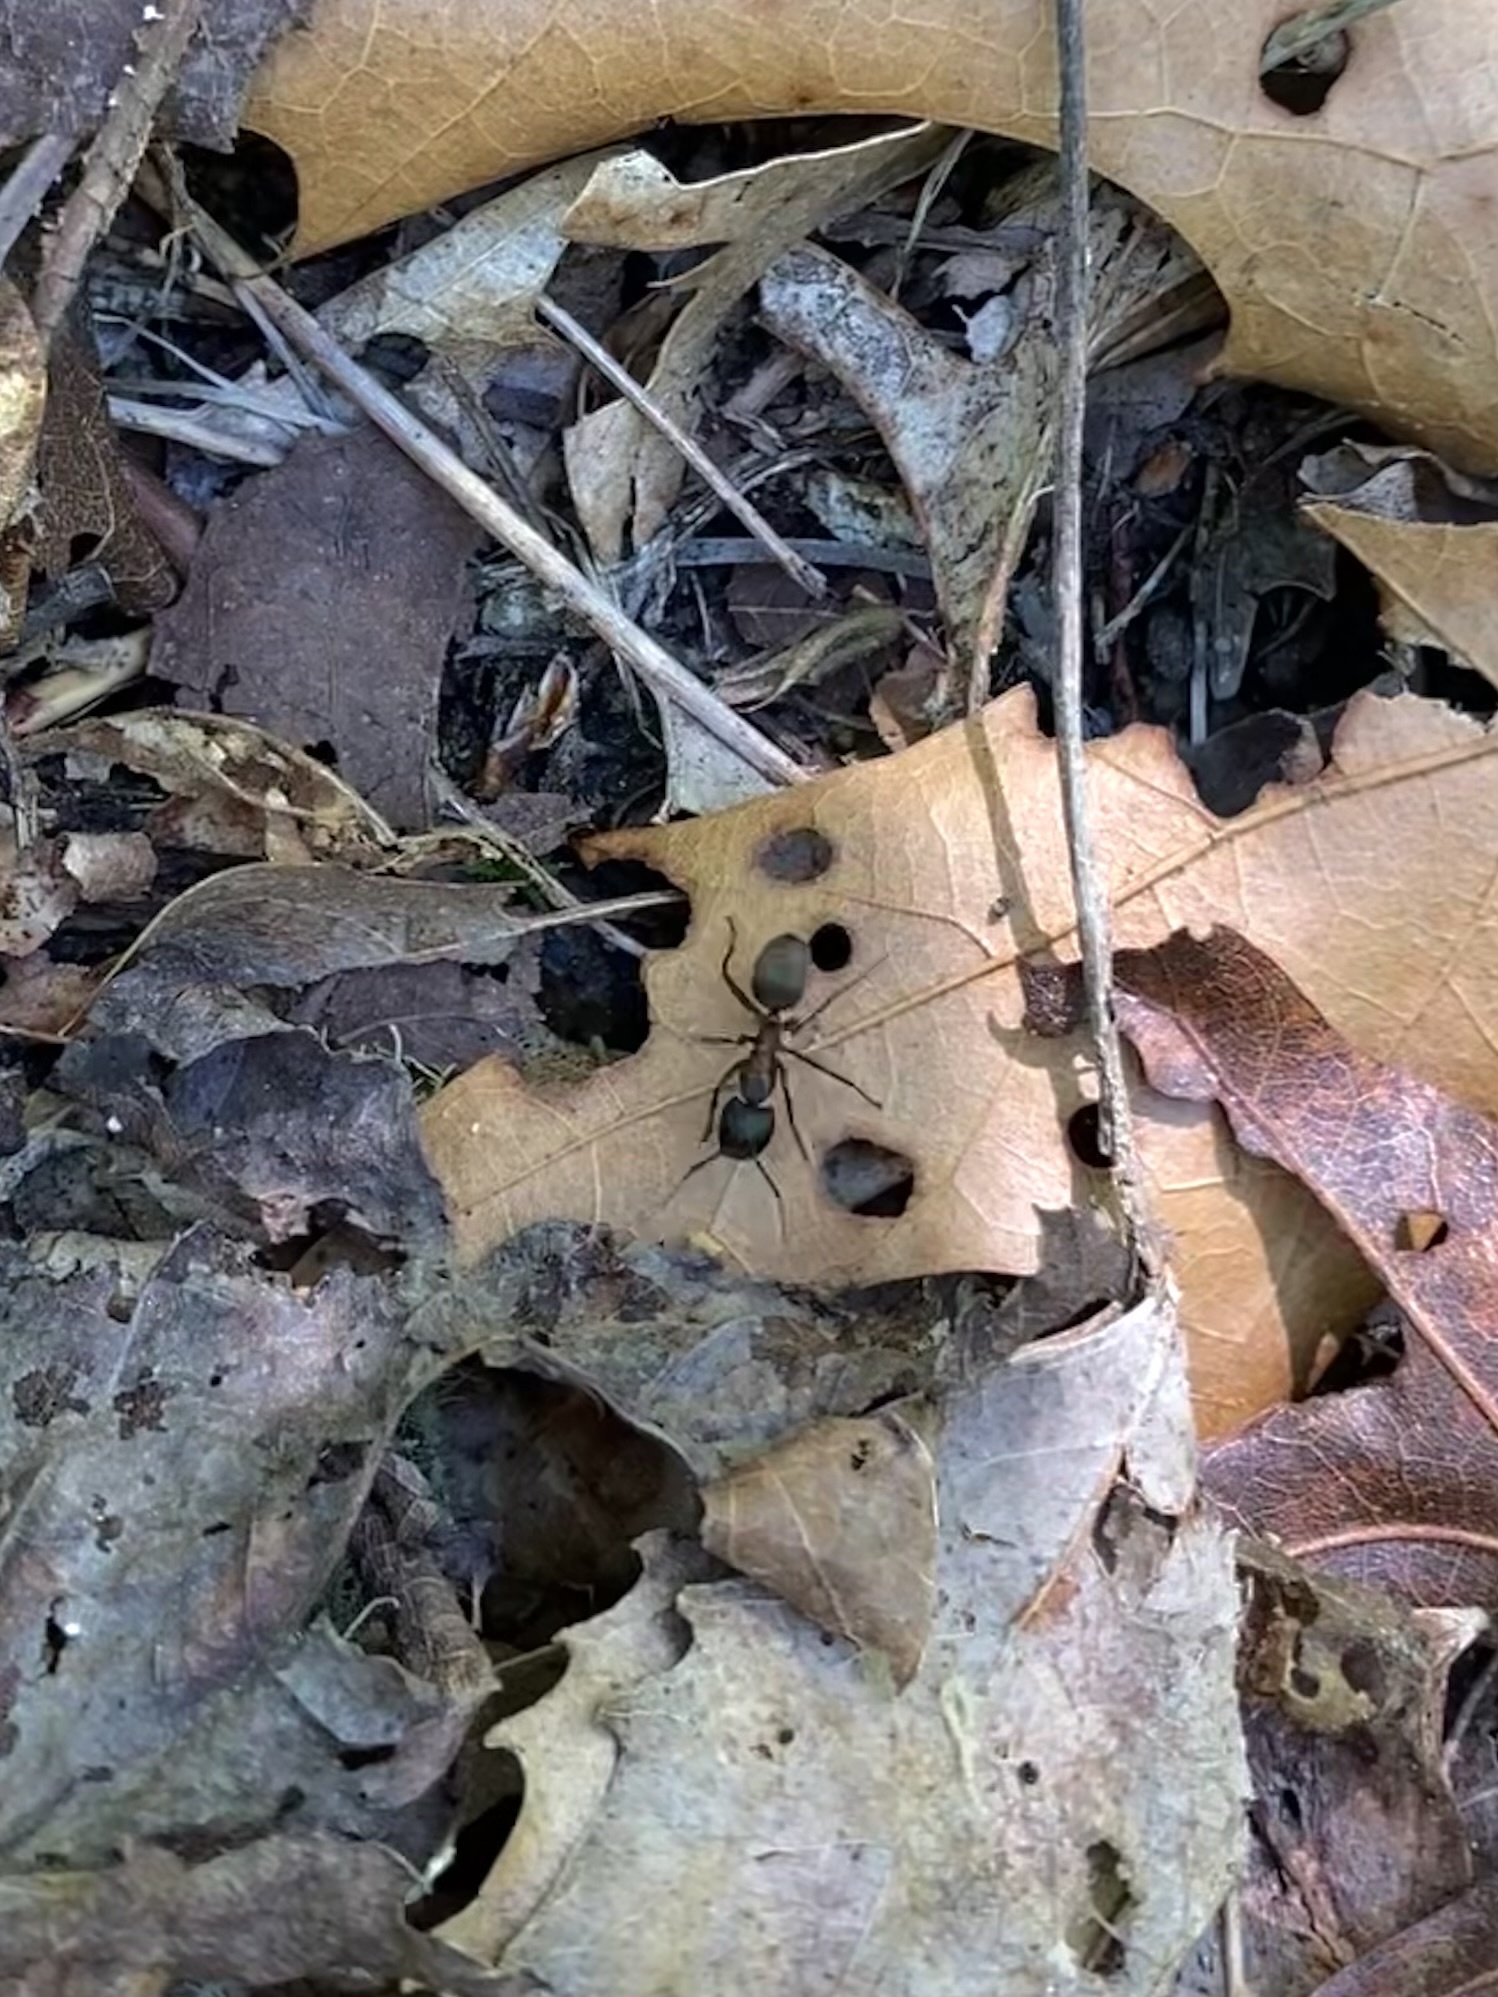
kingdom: Animalia
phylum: Arthropoda
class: Insecta
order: Hymenoptera
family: Formicidae
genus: Camponotus
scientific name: Camponotus chromaiodes
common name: Red carpenter ant
